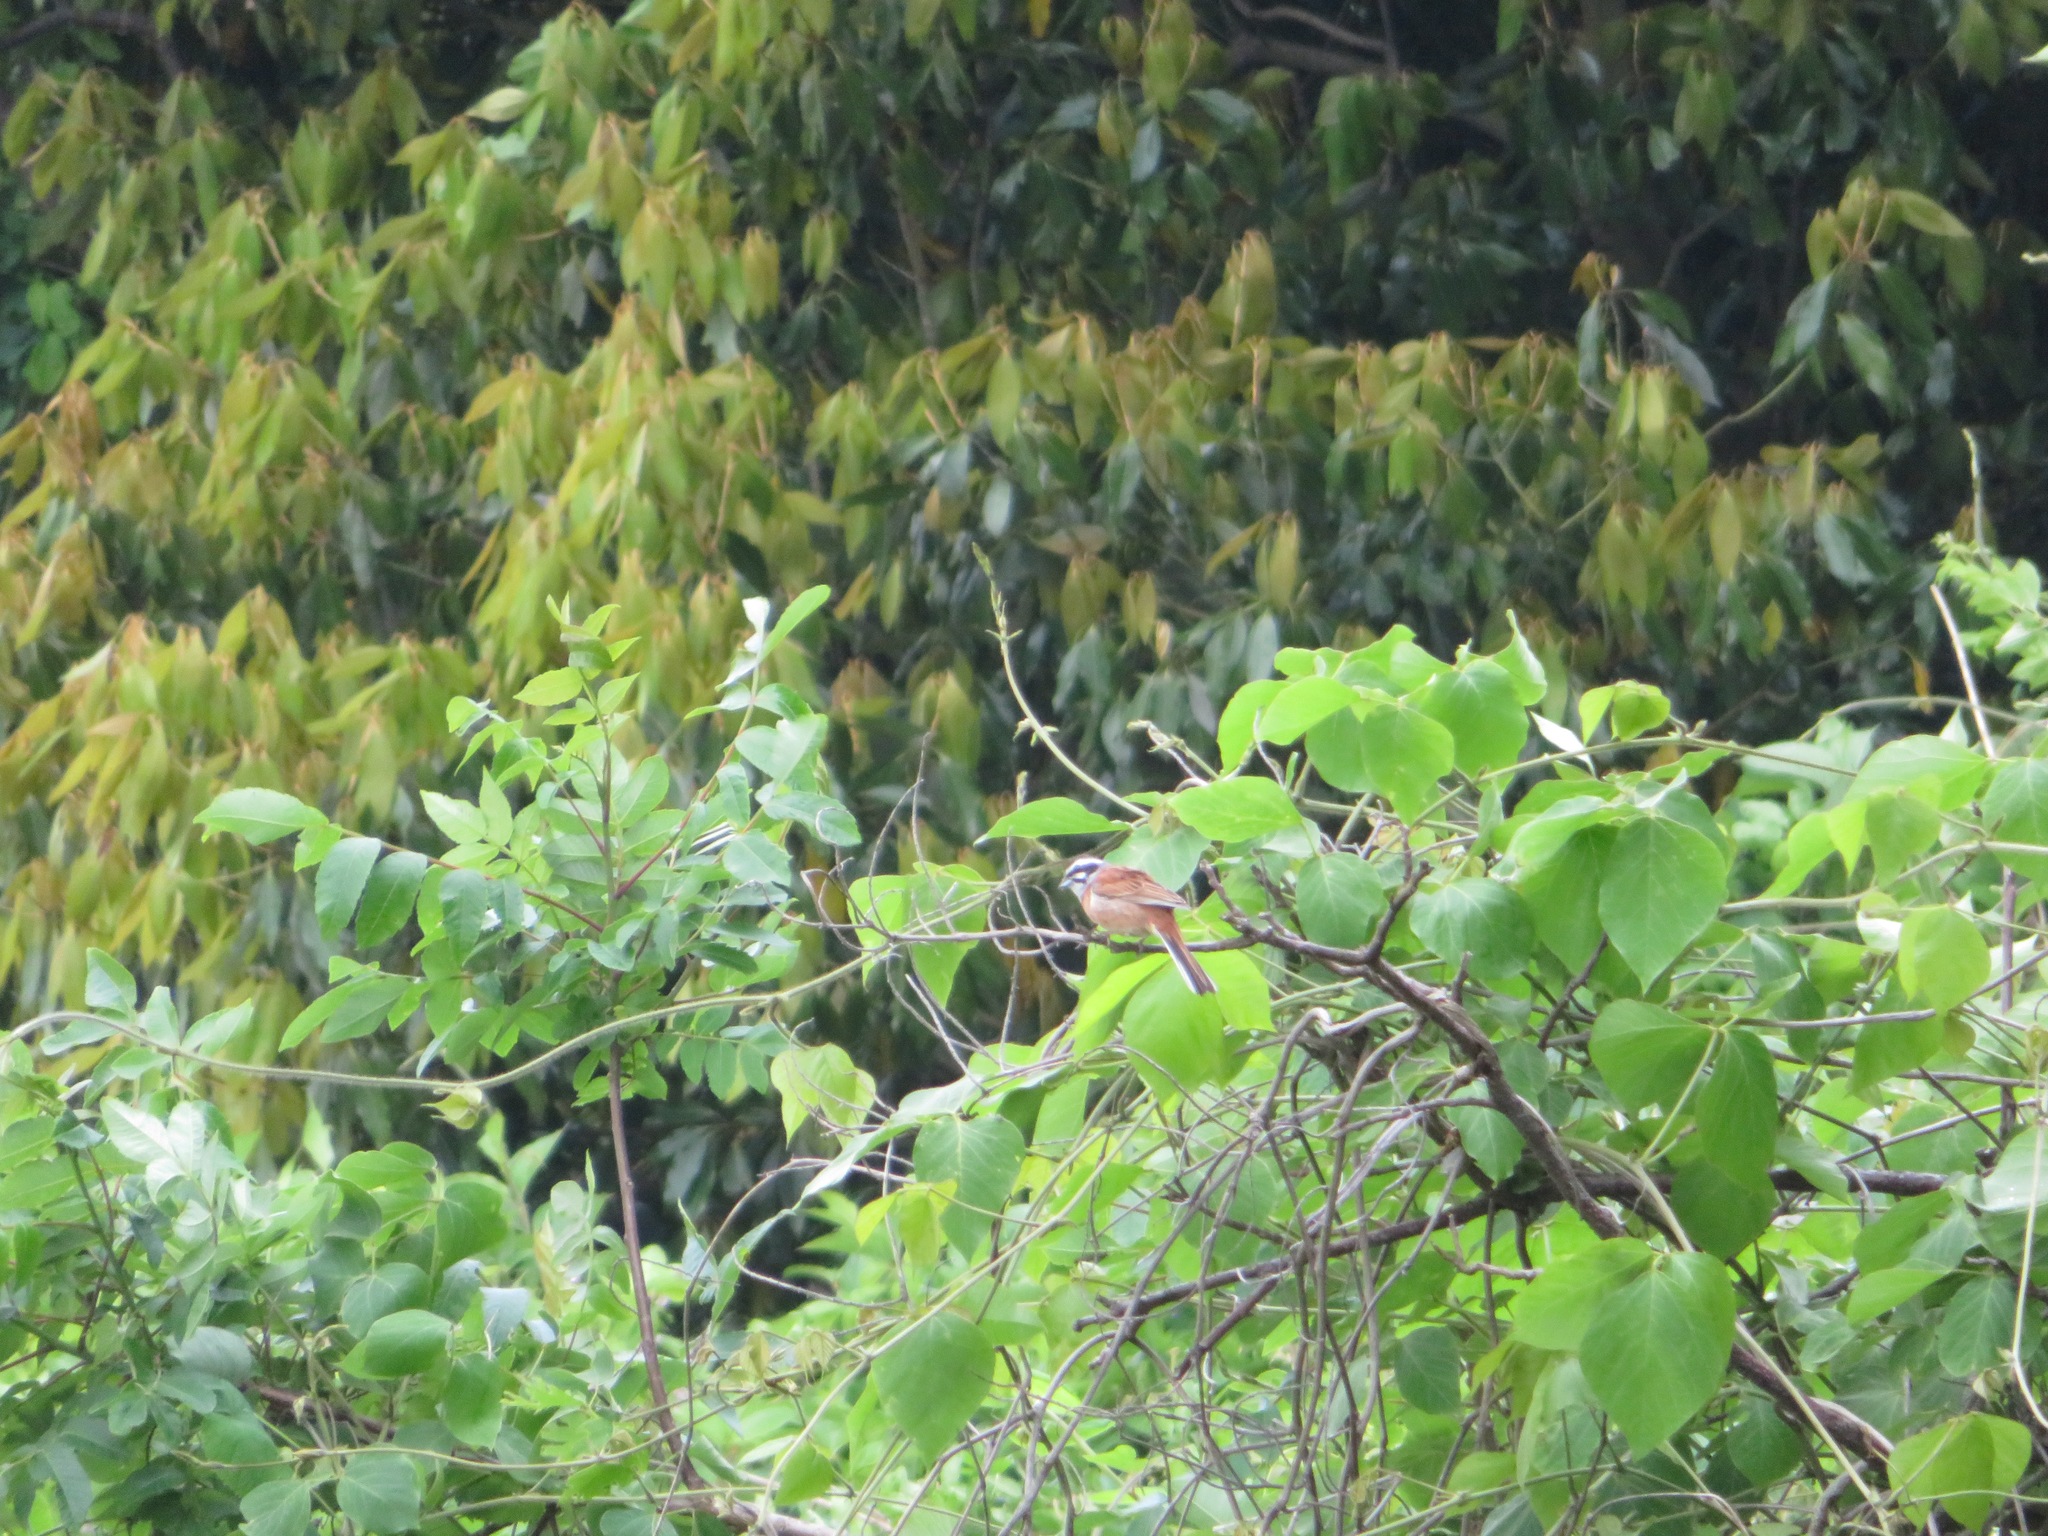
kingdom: Animalia
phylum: Chordata
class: Aves
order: Passeriformes
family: Emberizidae
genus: Emberiza
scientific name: Emberiza cioides
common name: Meadow bunting
